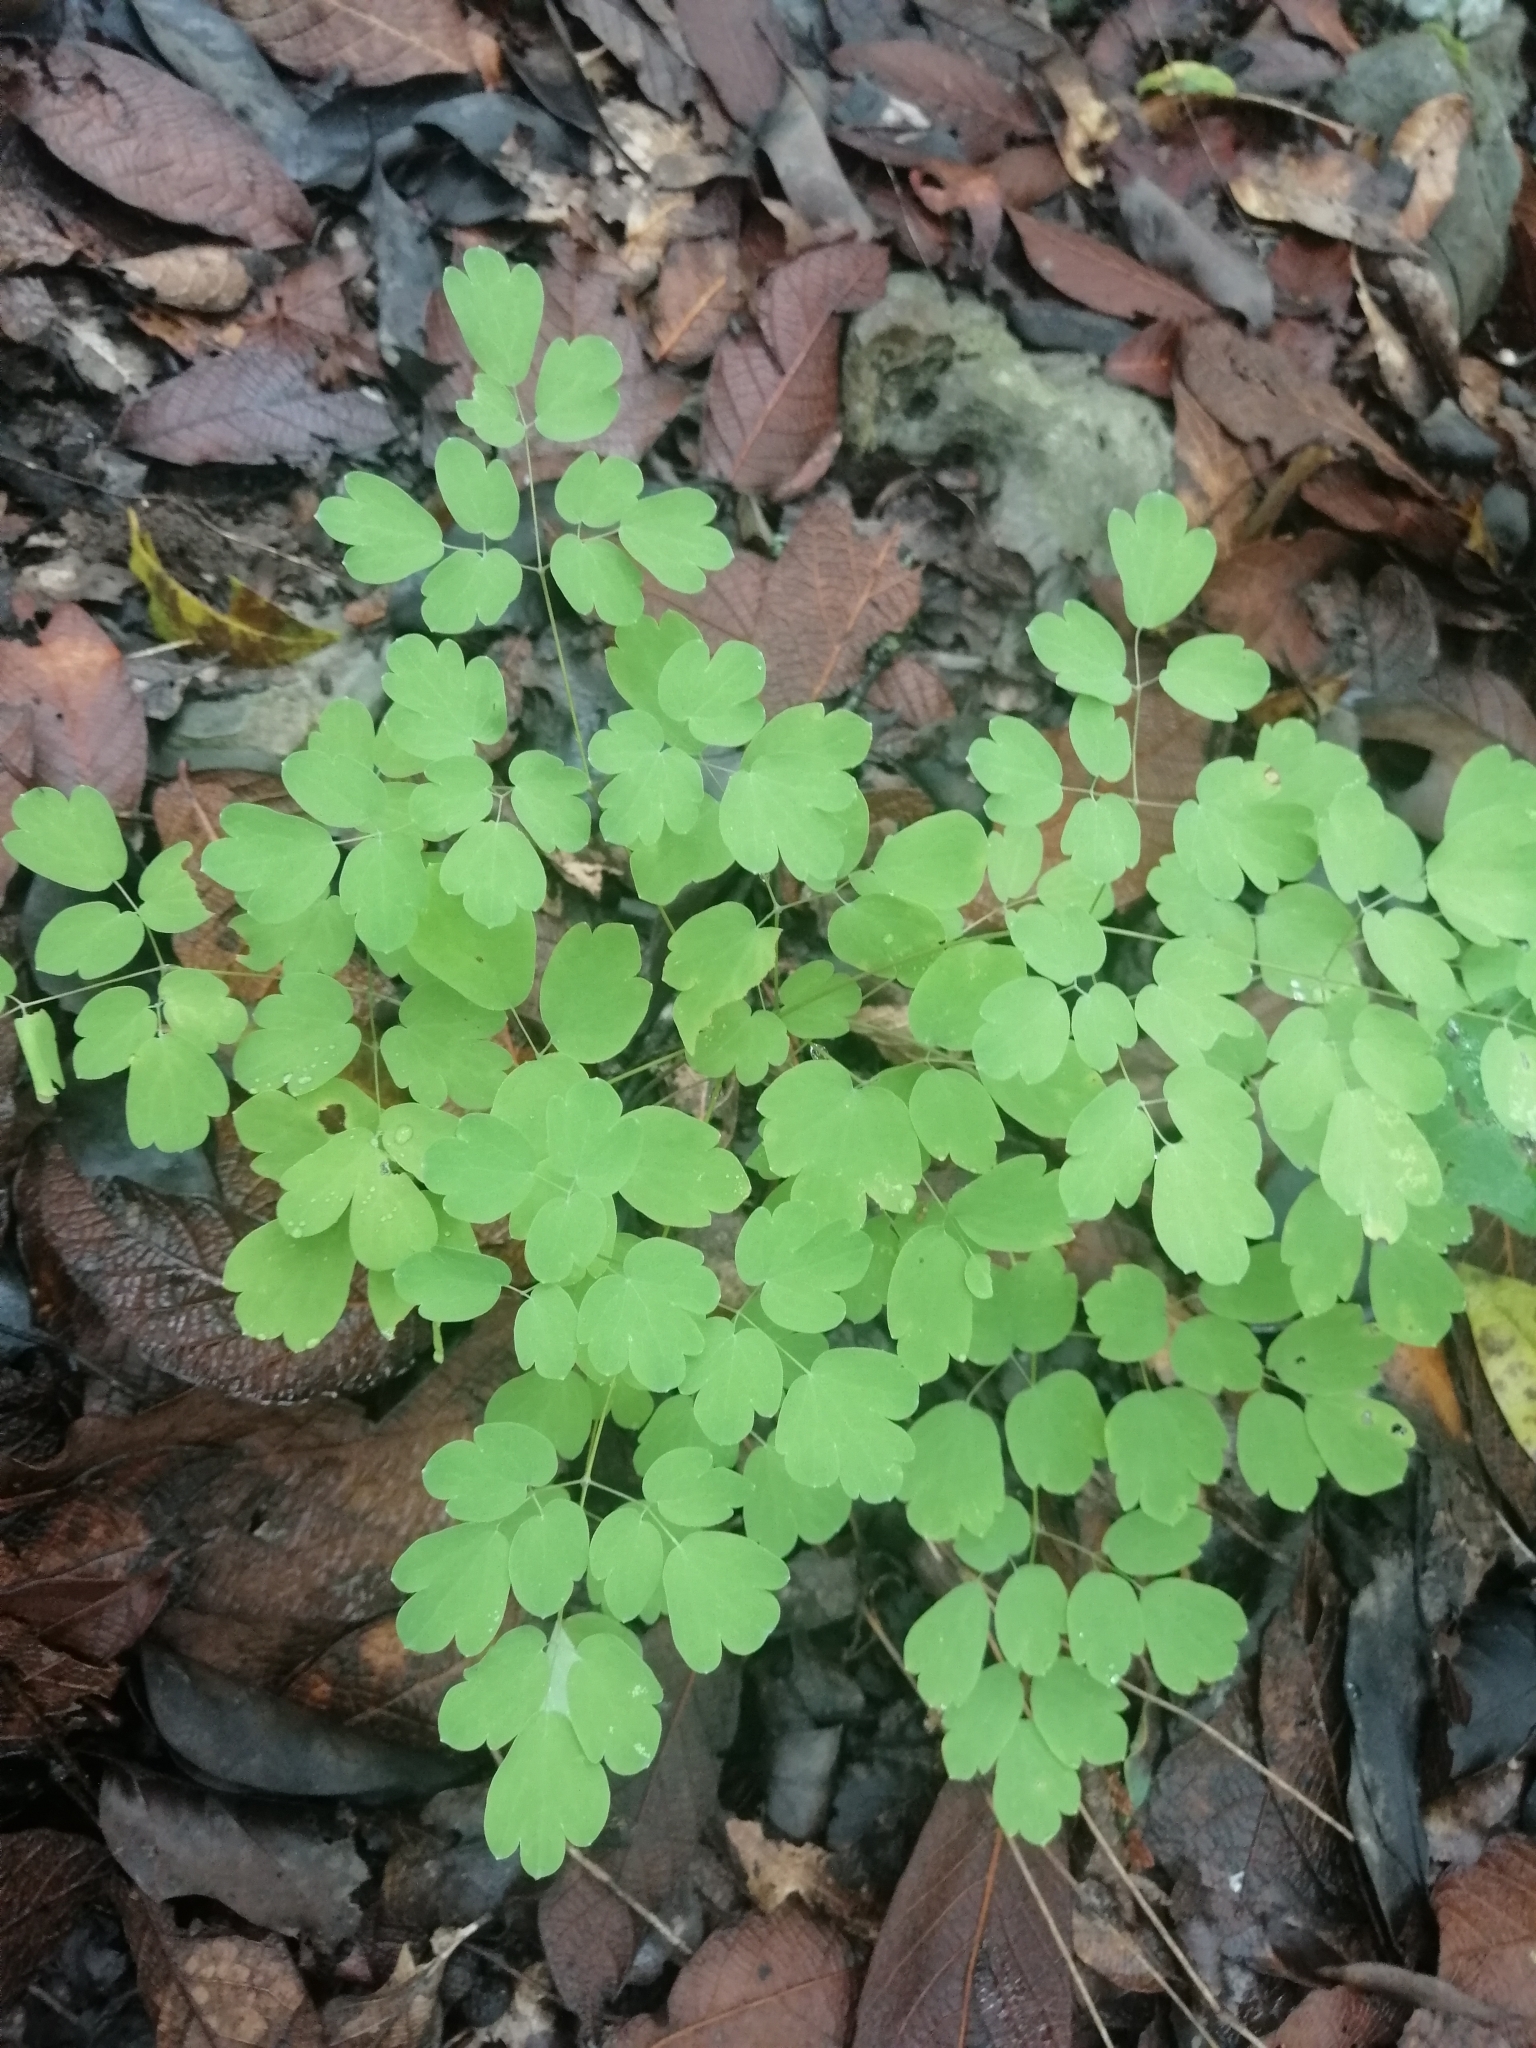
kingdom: Plantae
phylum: Tracheophyta
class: Polypodiopsida
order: Polypodiales
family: Pteridaceae
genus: Adiantum
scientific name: Adiantum capillus-veneris
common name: Maidenhair fern
